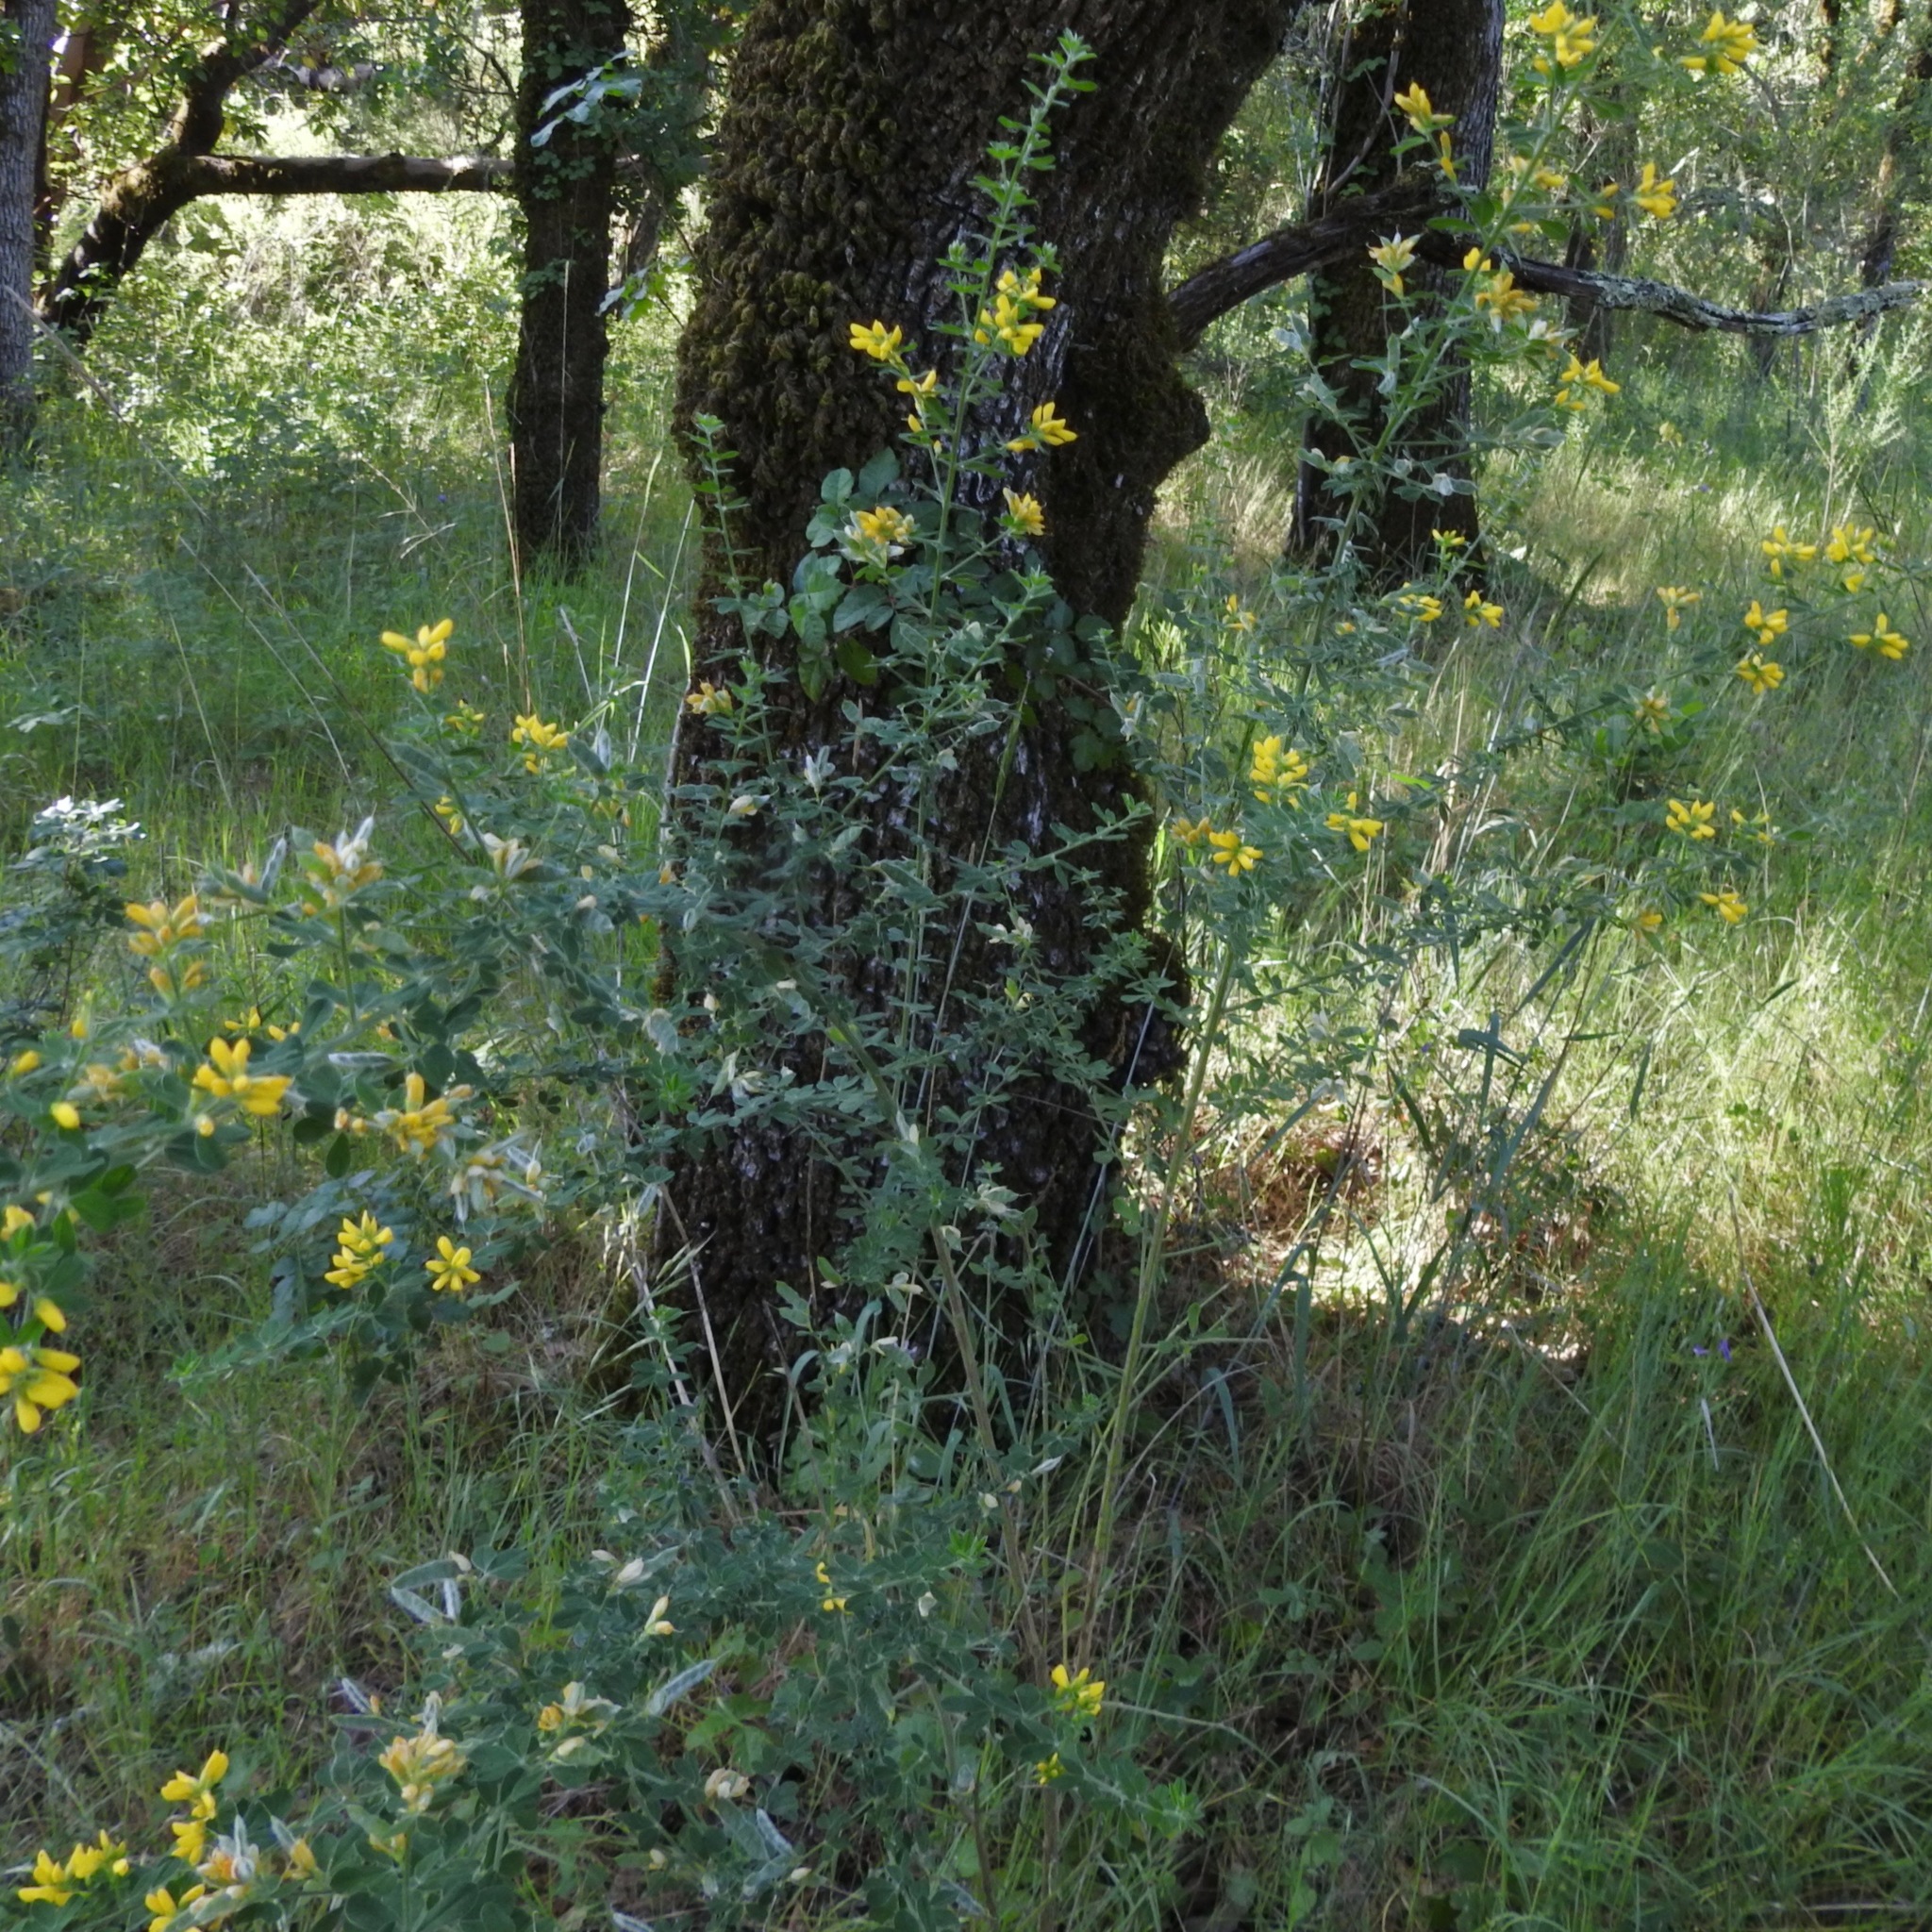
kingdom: Plantae
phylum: Tracheophyta
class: Magnoliopsida
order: Fabales
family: Fabaceae
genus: Genista
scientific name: Genista monspessulana
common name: Montpellier broom
